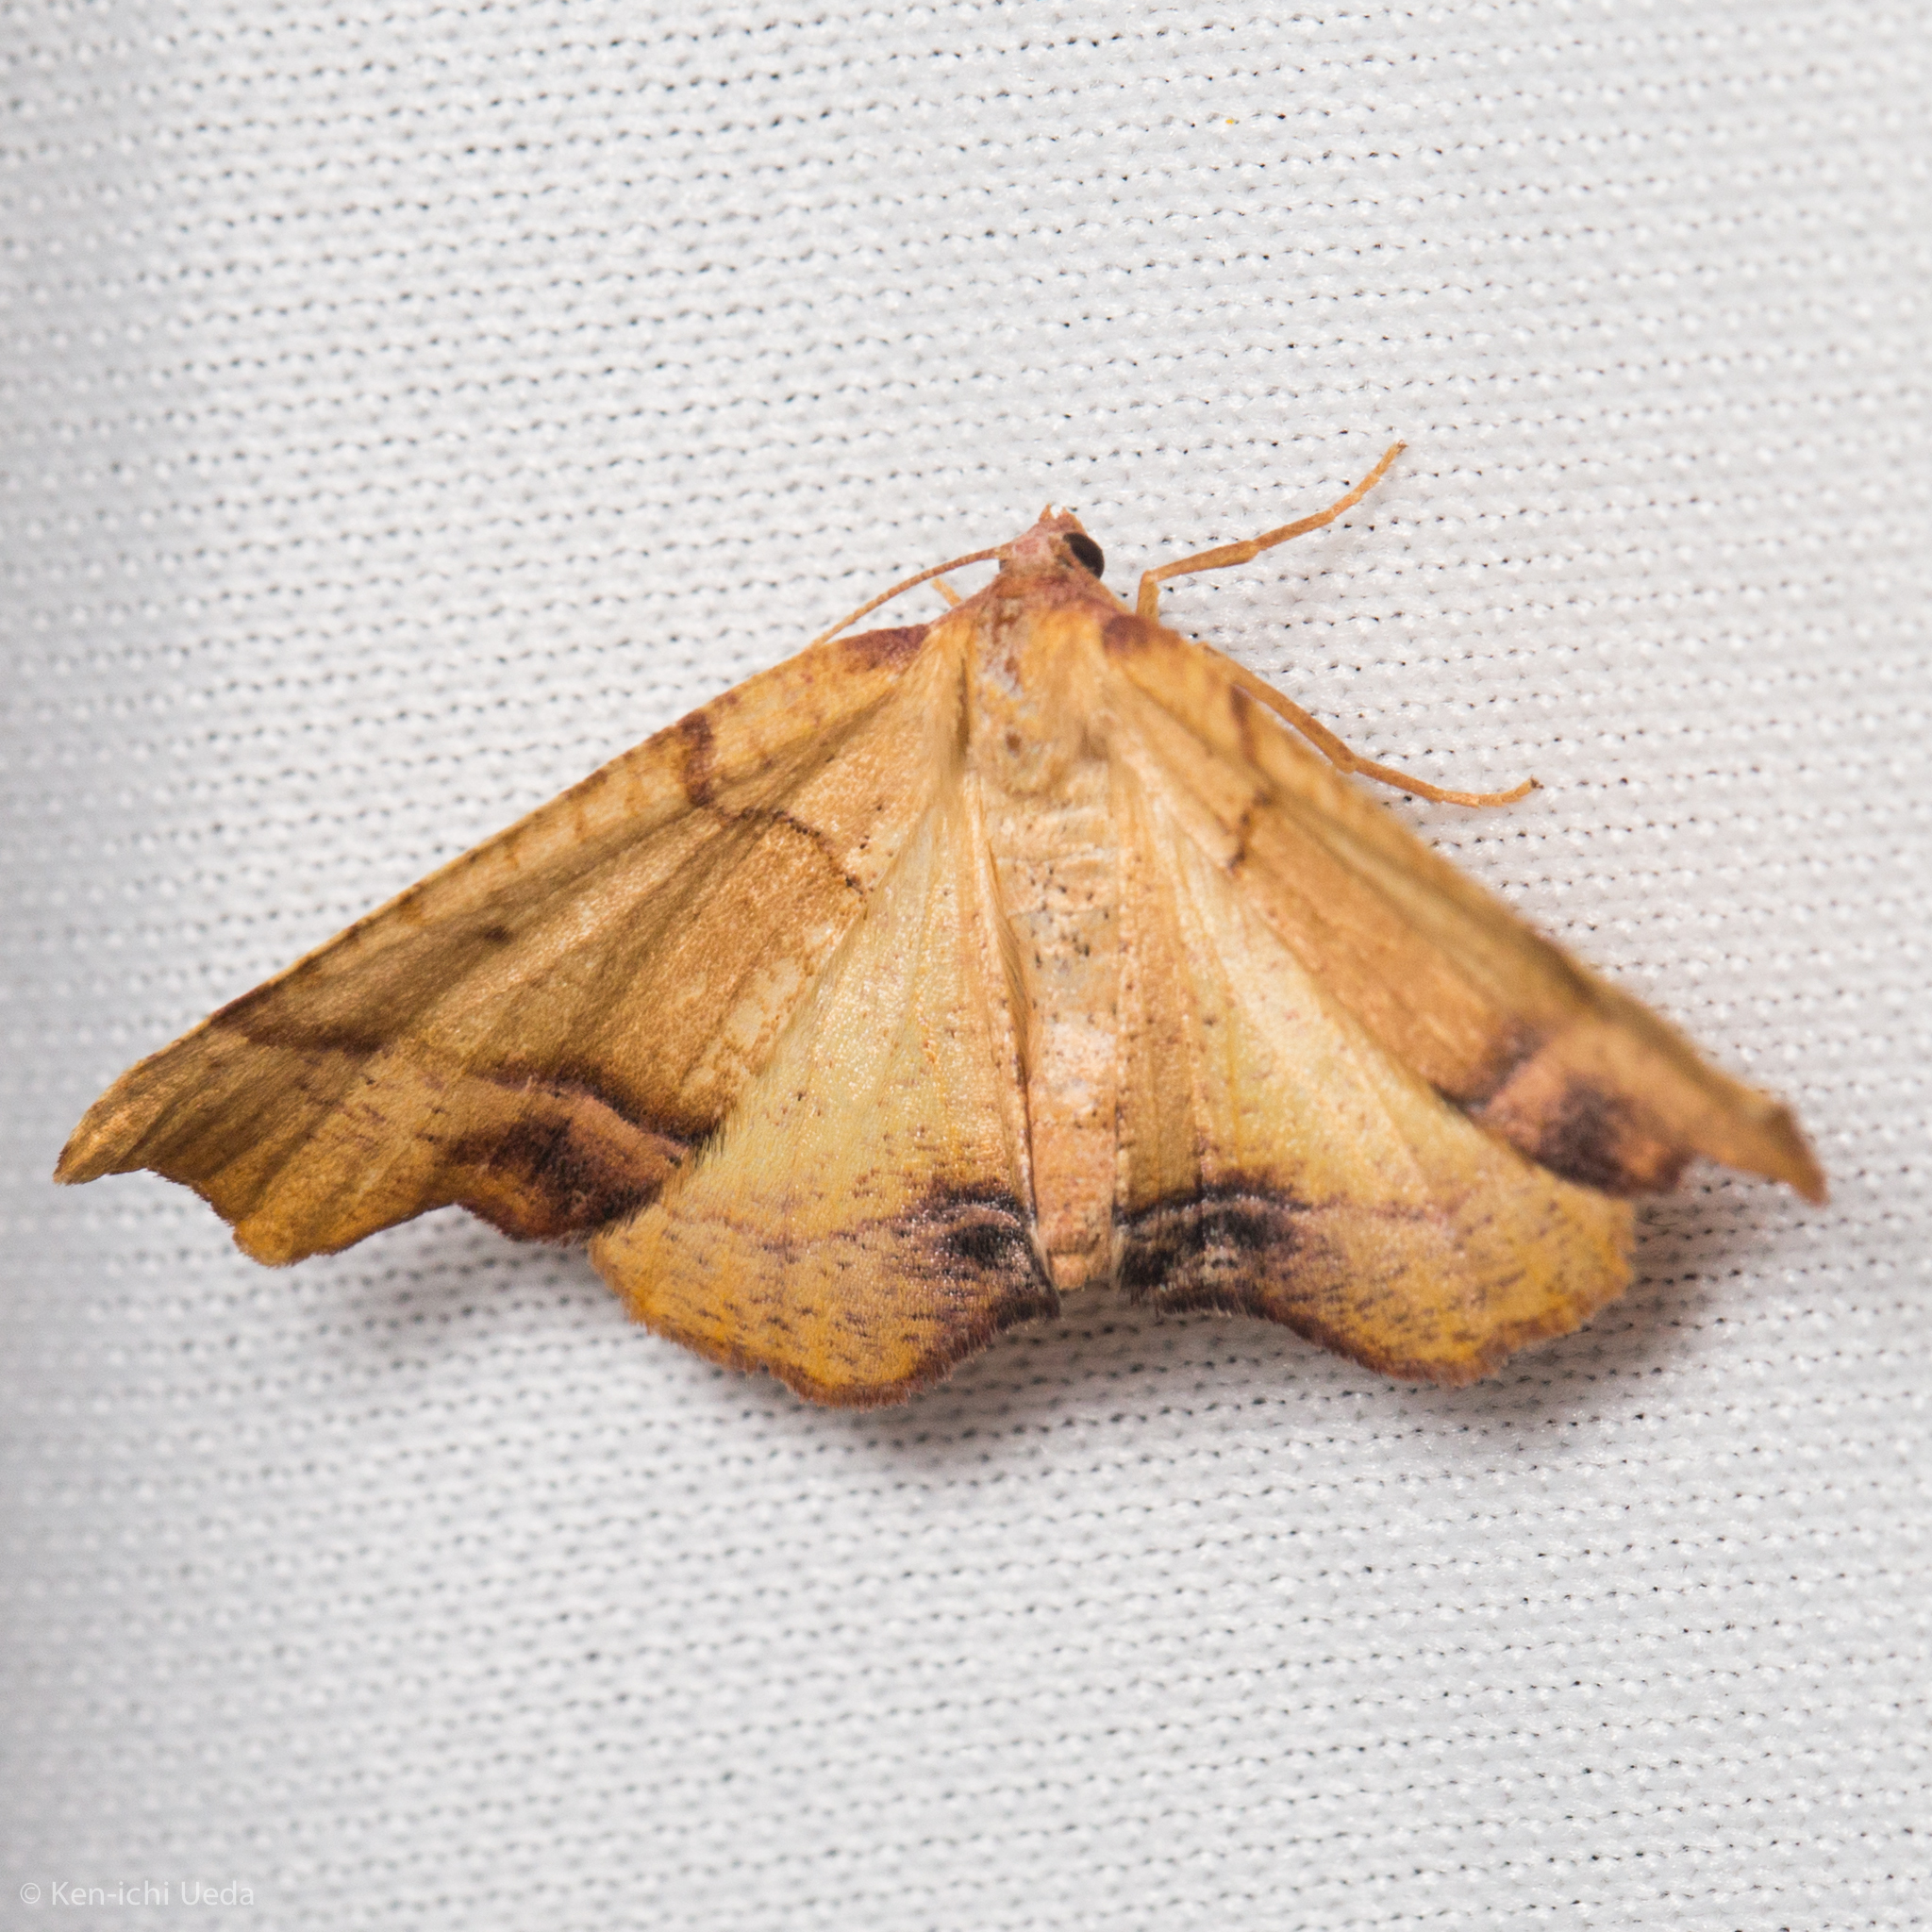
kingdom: Animalia
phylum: Arthropoda
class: Insecta
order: Lepidoptera
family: Geometridae
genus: Plagodis
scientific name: Plagodis phlogosaria
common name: Straight-lined plagodis
